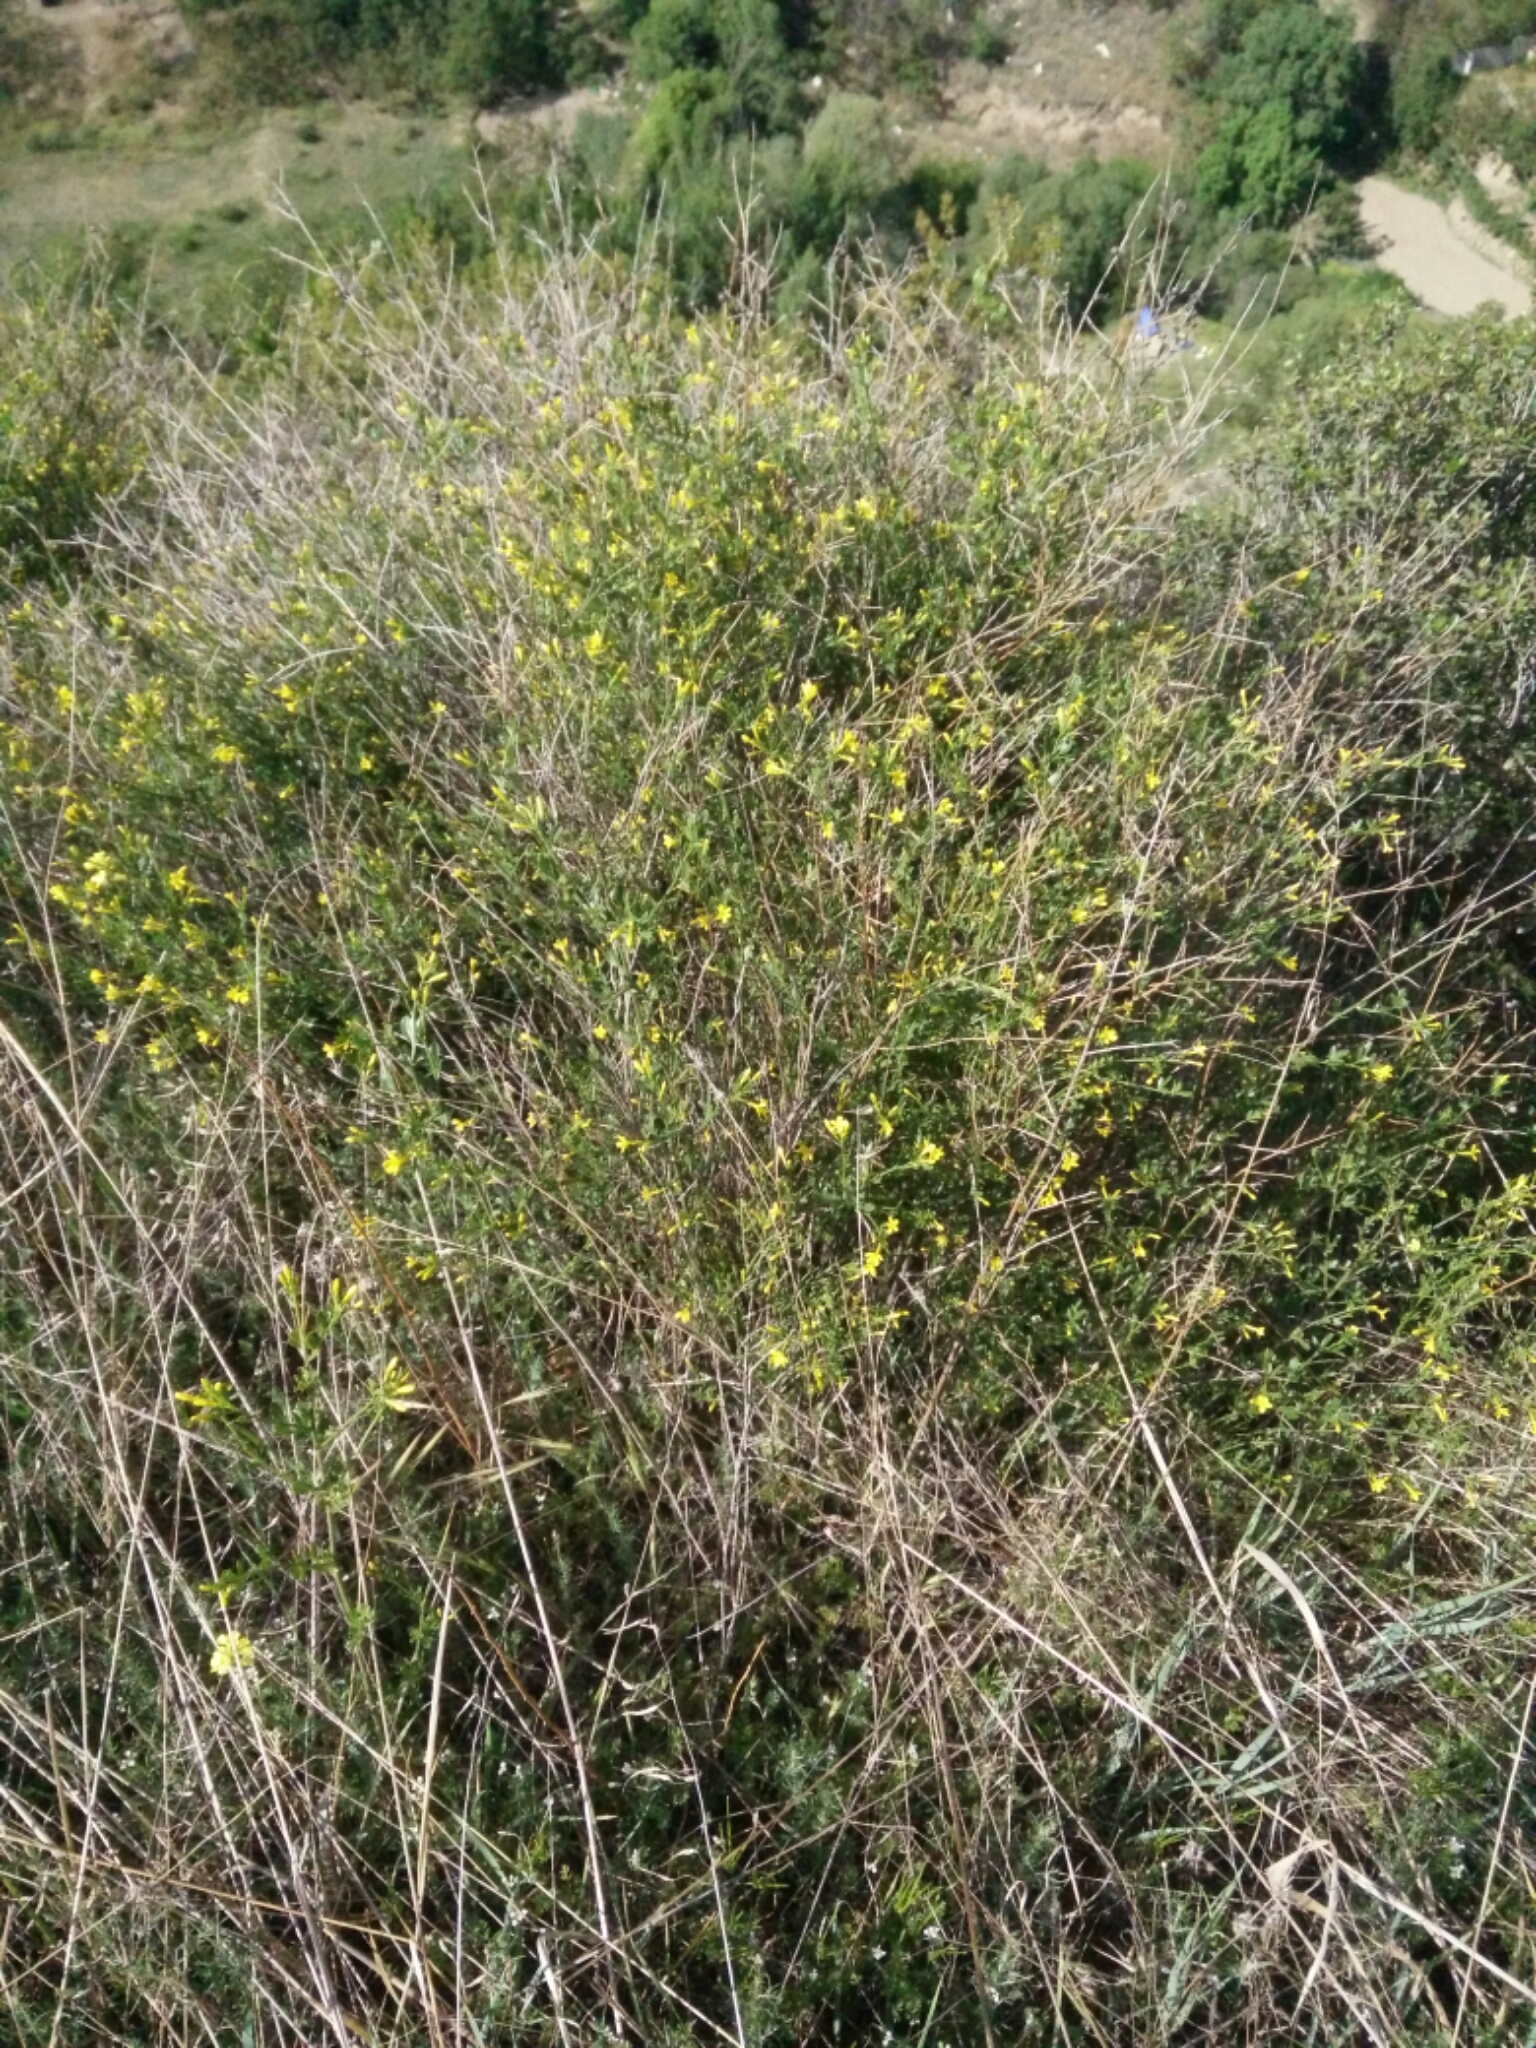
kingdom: Plantae
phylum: Tracheophyta
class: Magnoliopsida
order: Lamiales
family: Oleaceae
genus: Chrysojasminum
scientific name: Chrysojasminum fruticans
